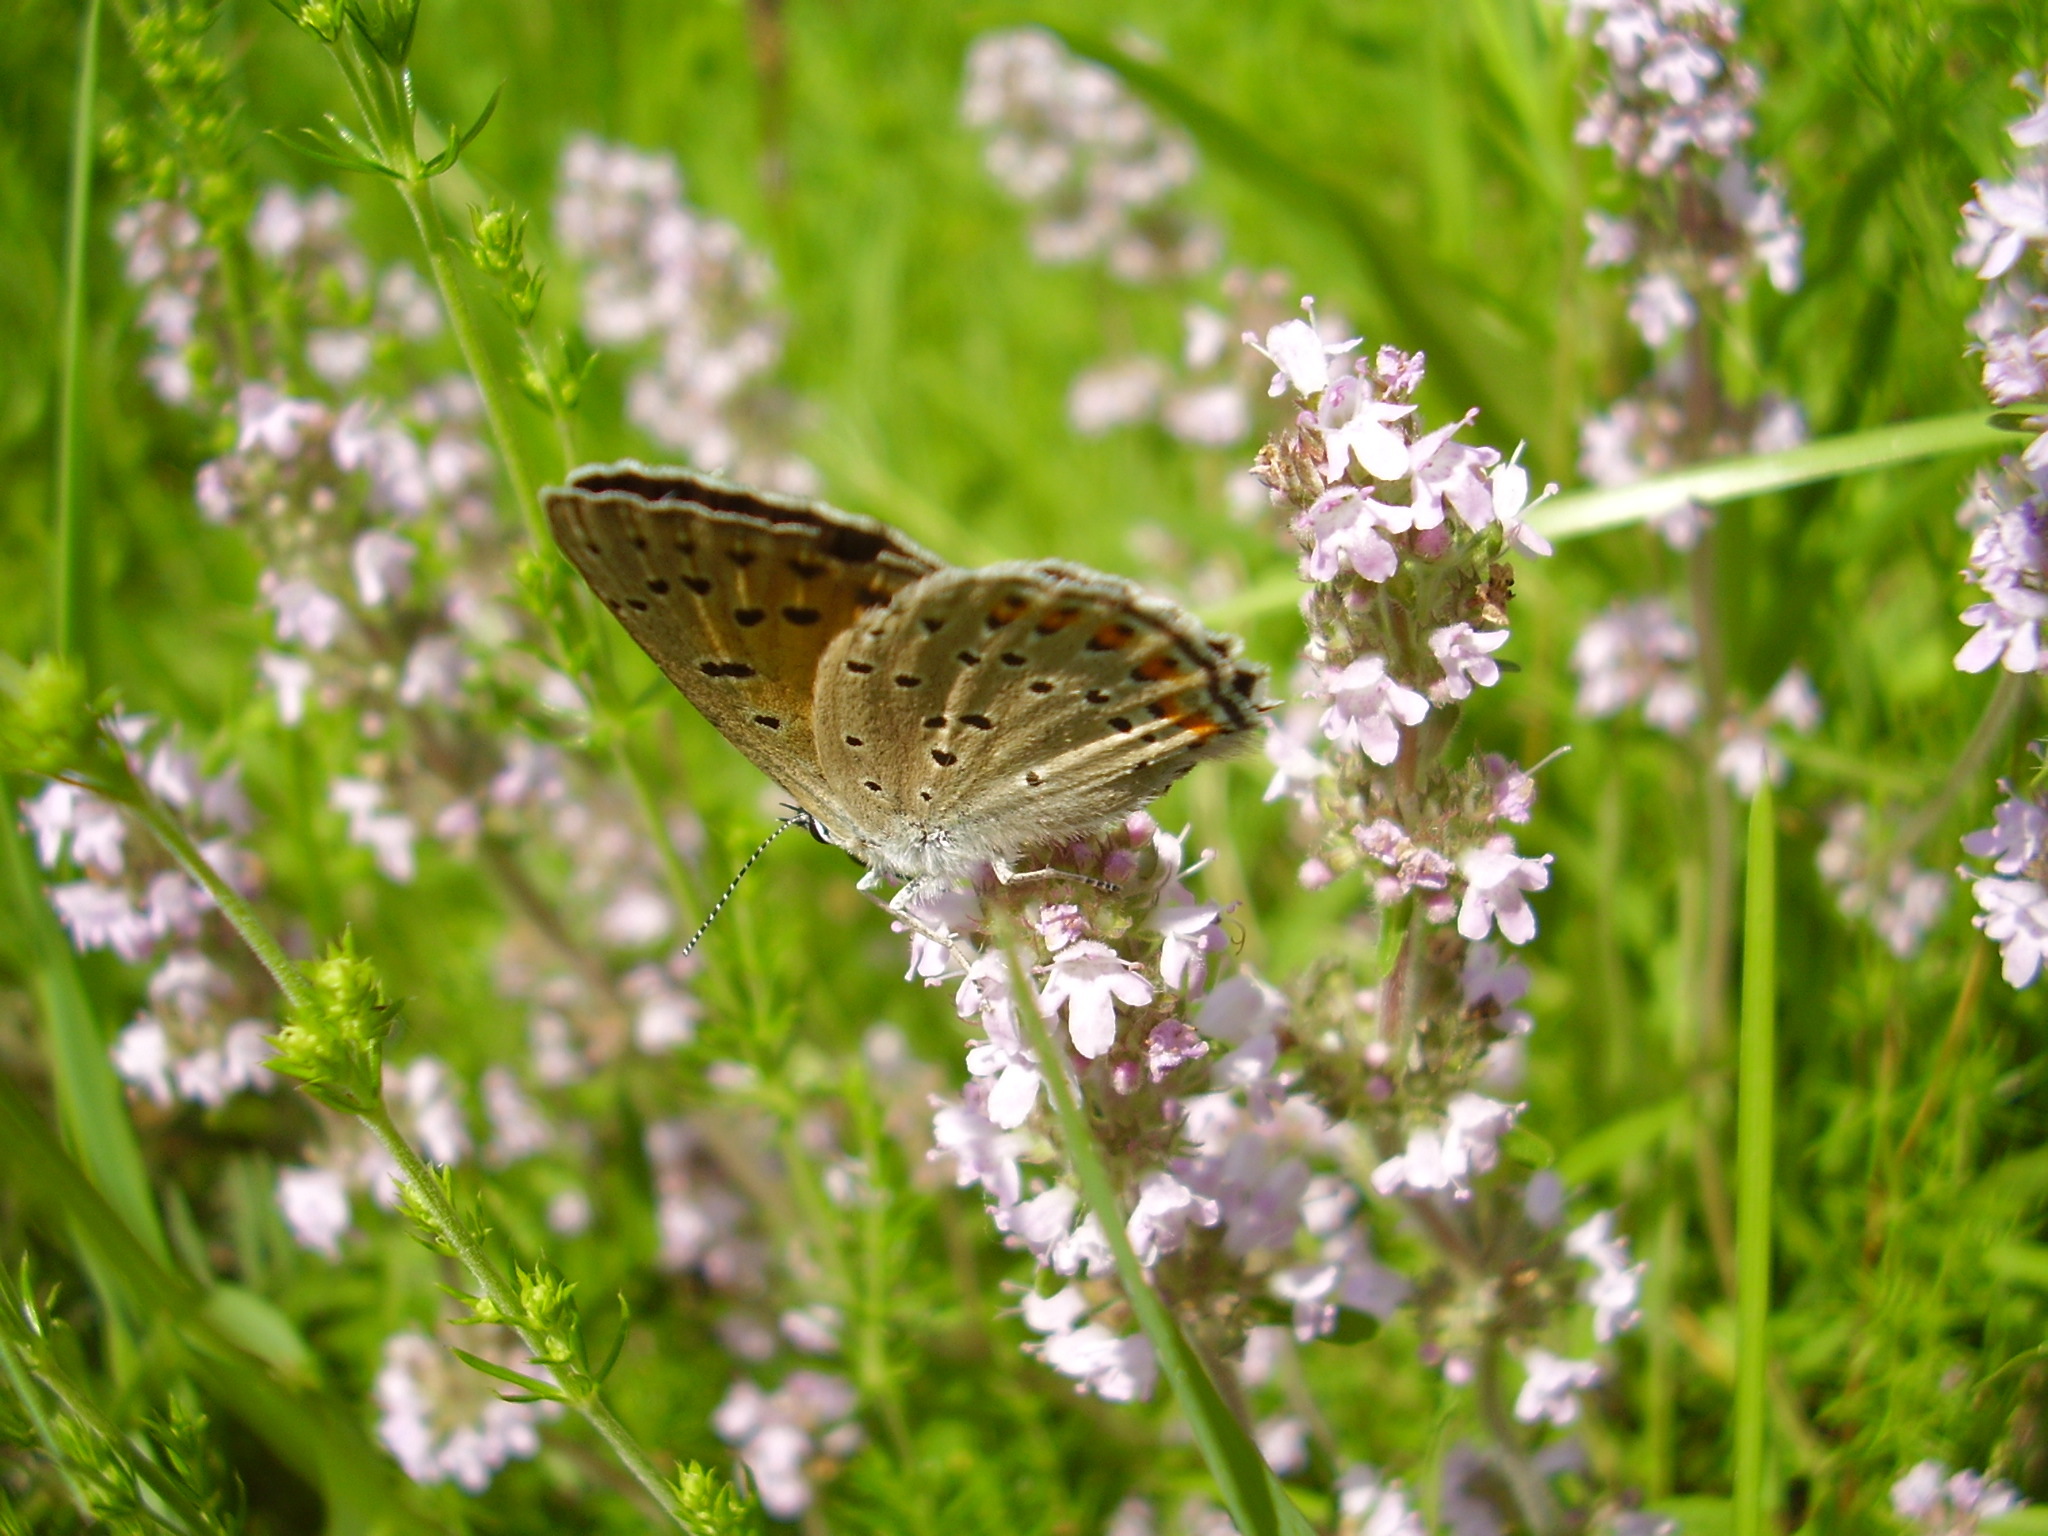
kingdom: Plantae
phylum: Tracheophyta
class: Magnoliopsida
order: Lamiales
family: Lamiaceae
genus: Thymus
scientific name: Thymus pannonicus
